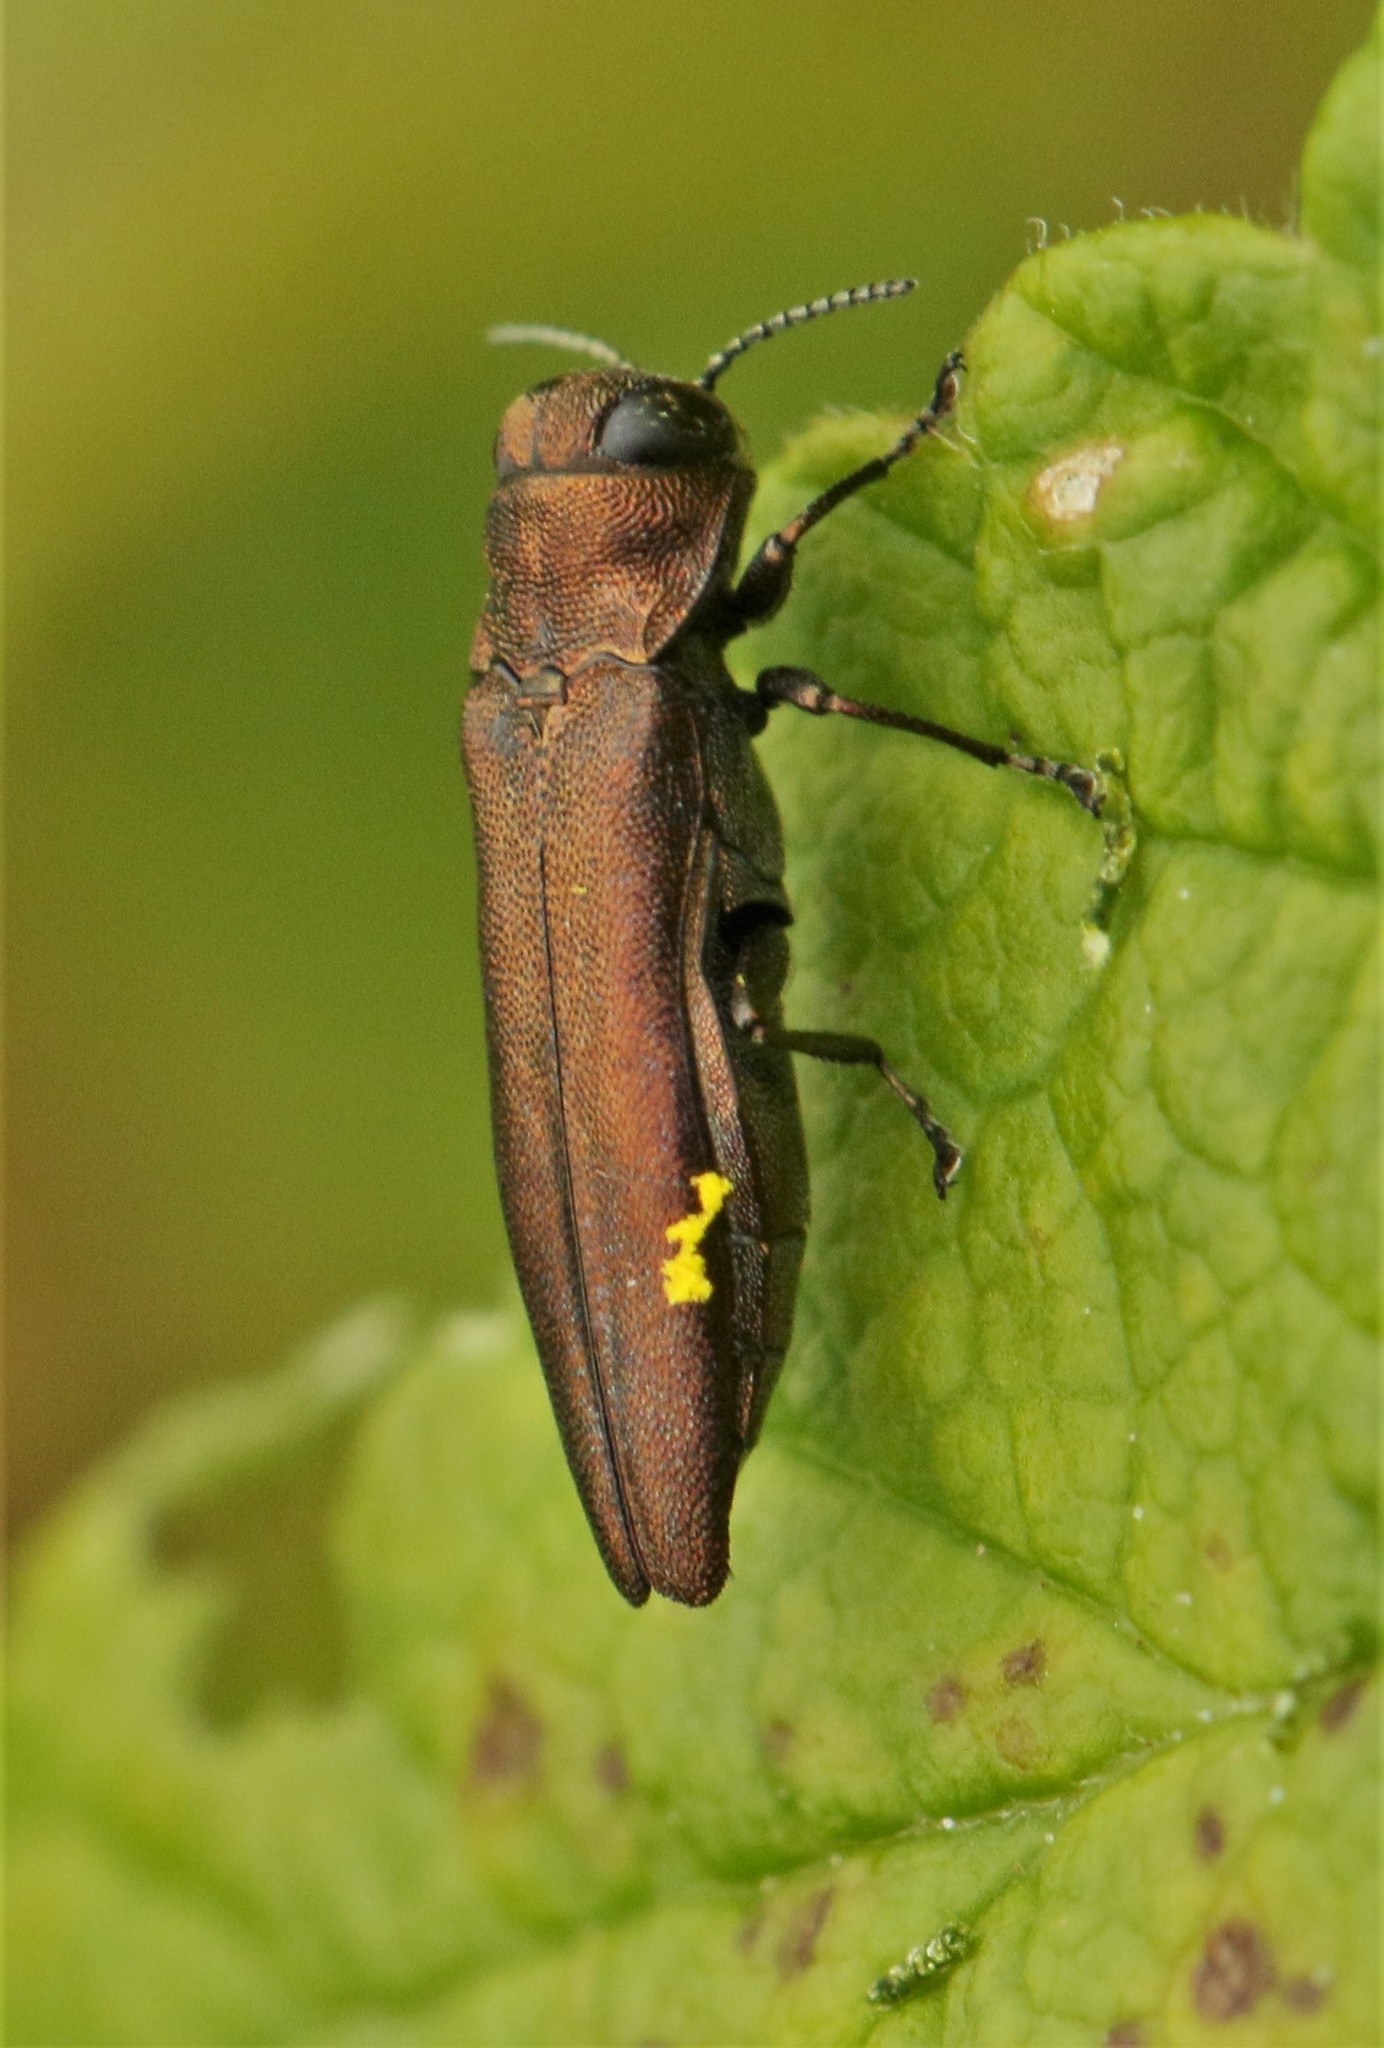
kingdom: Animalia
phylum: Arthropoda
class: Insecta
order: Coleoptera
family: Buprestidae
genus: Agrilus
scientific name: Agrilus cuprescens
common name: Rose stem girdler
